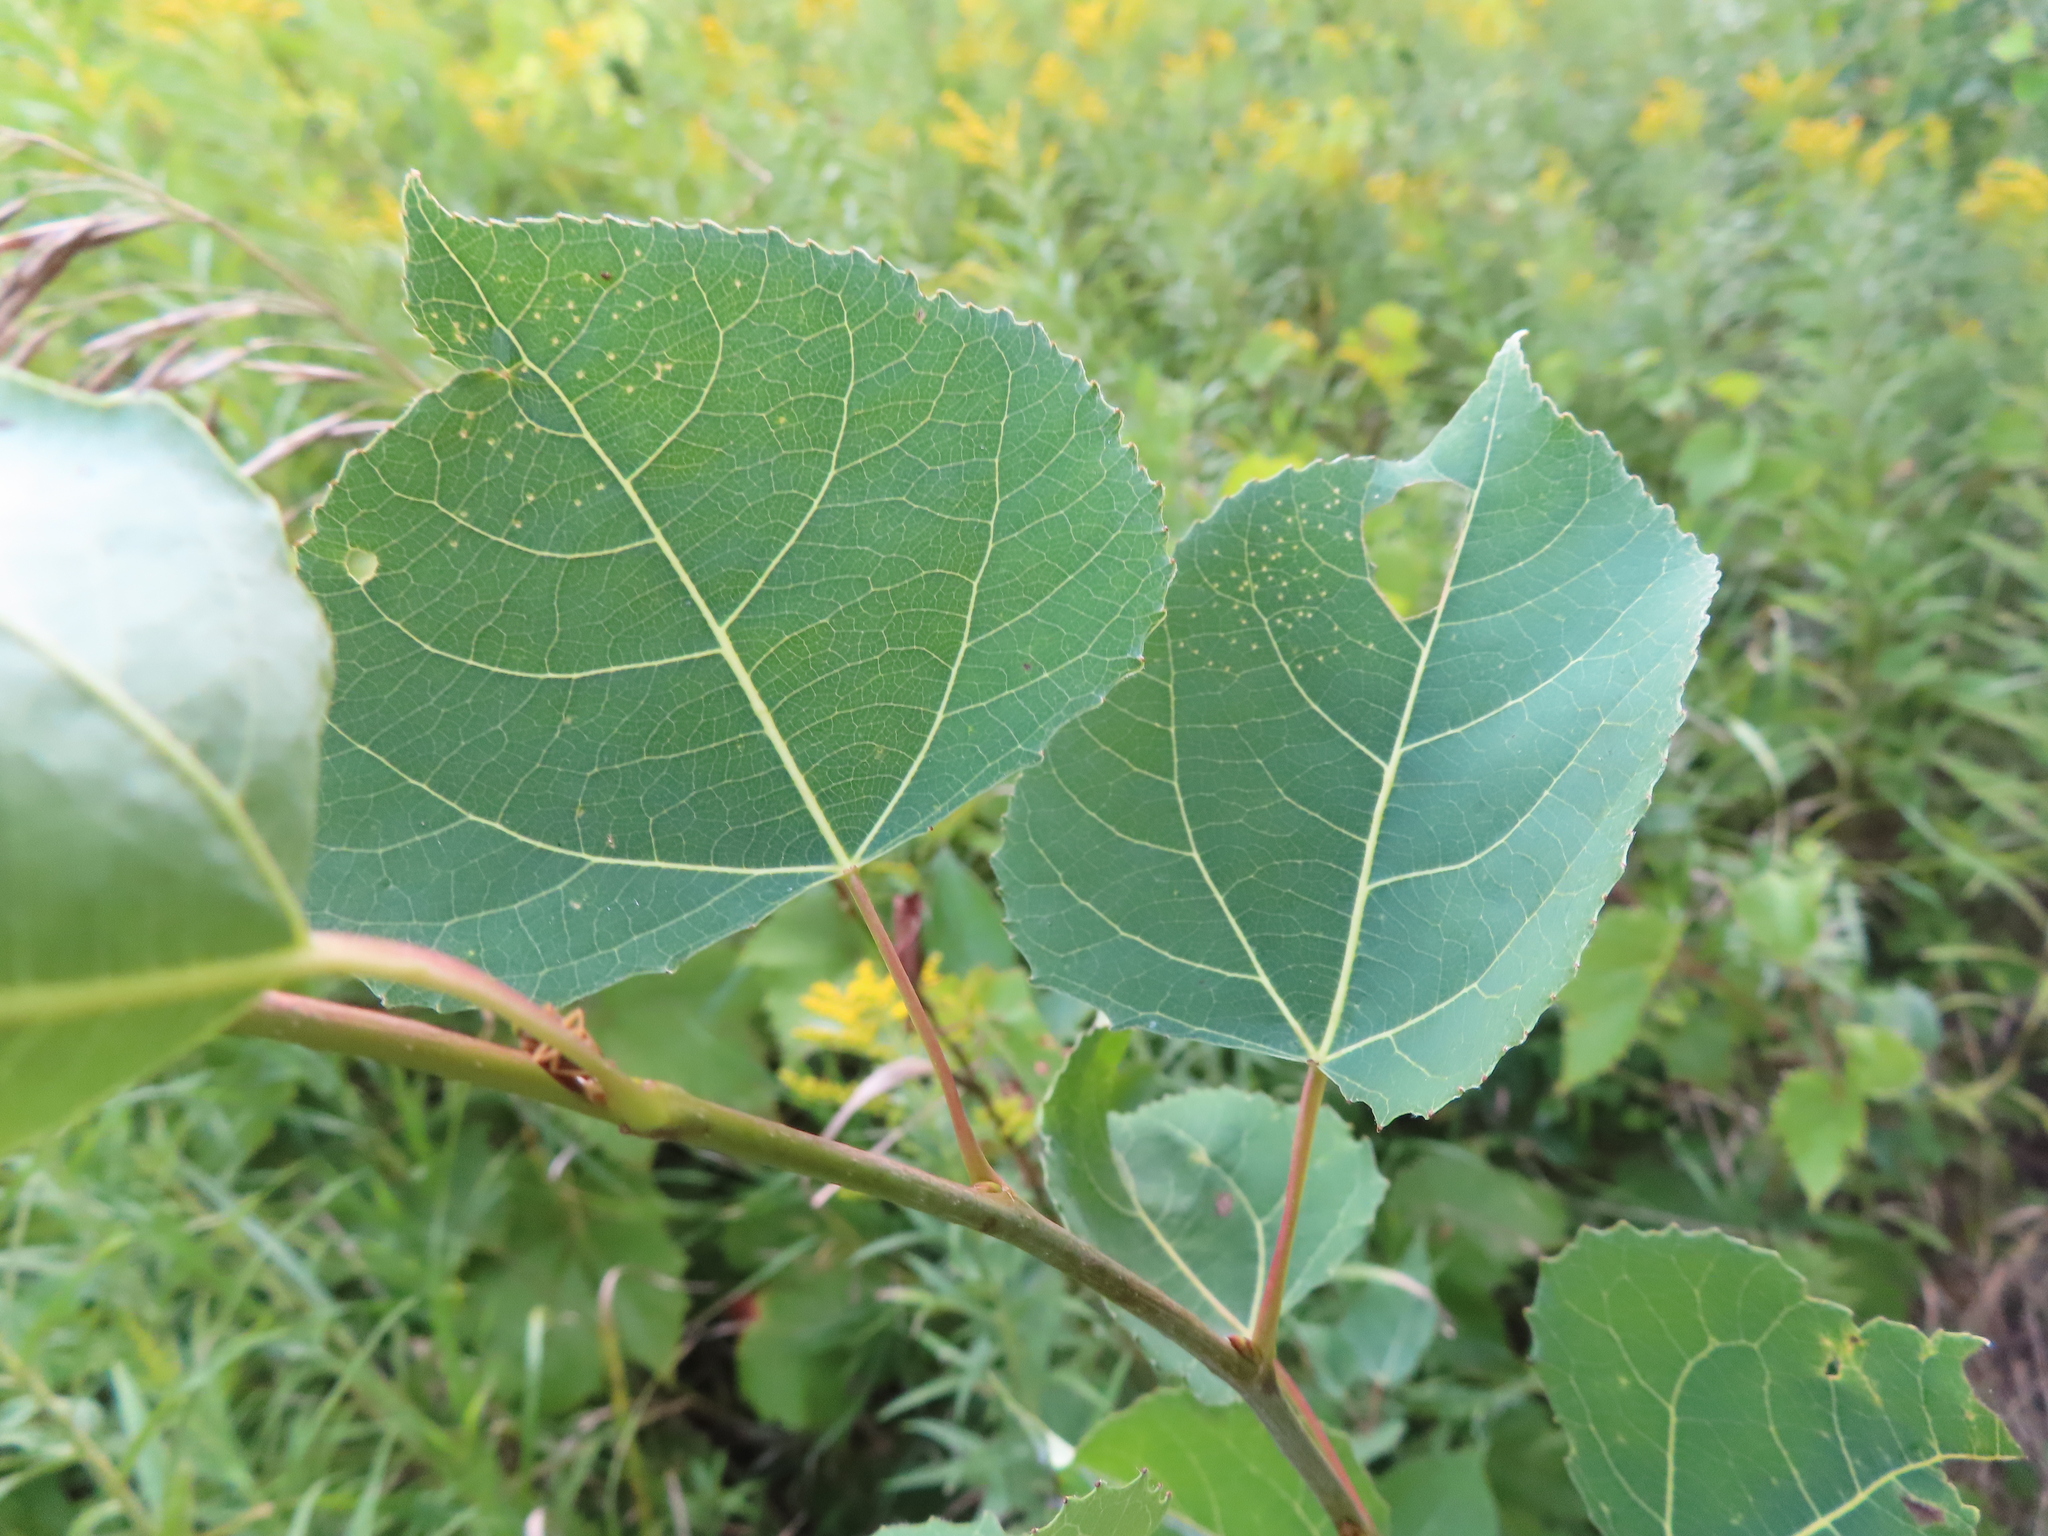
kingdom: Plantae
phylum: Tracheophyta
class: Magnoliopsida
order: Malpighiales
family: Salicaceae
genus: Populus
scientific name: Populus tremuloides
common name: Quaking aspen
